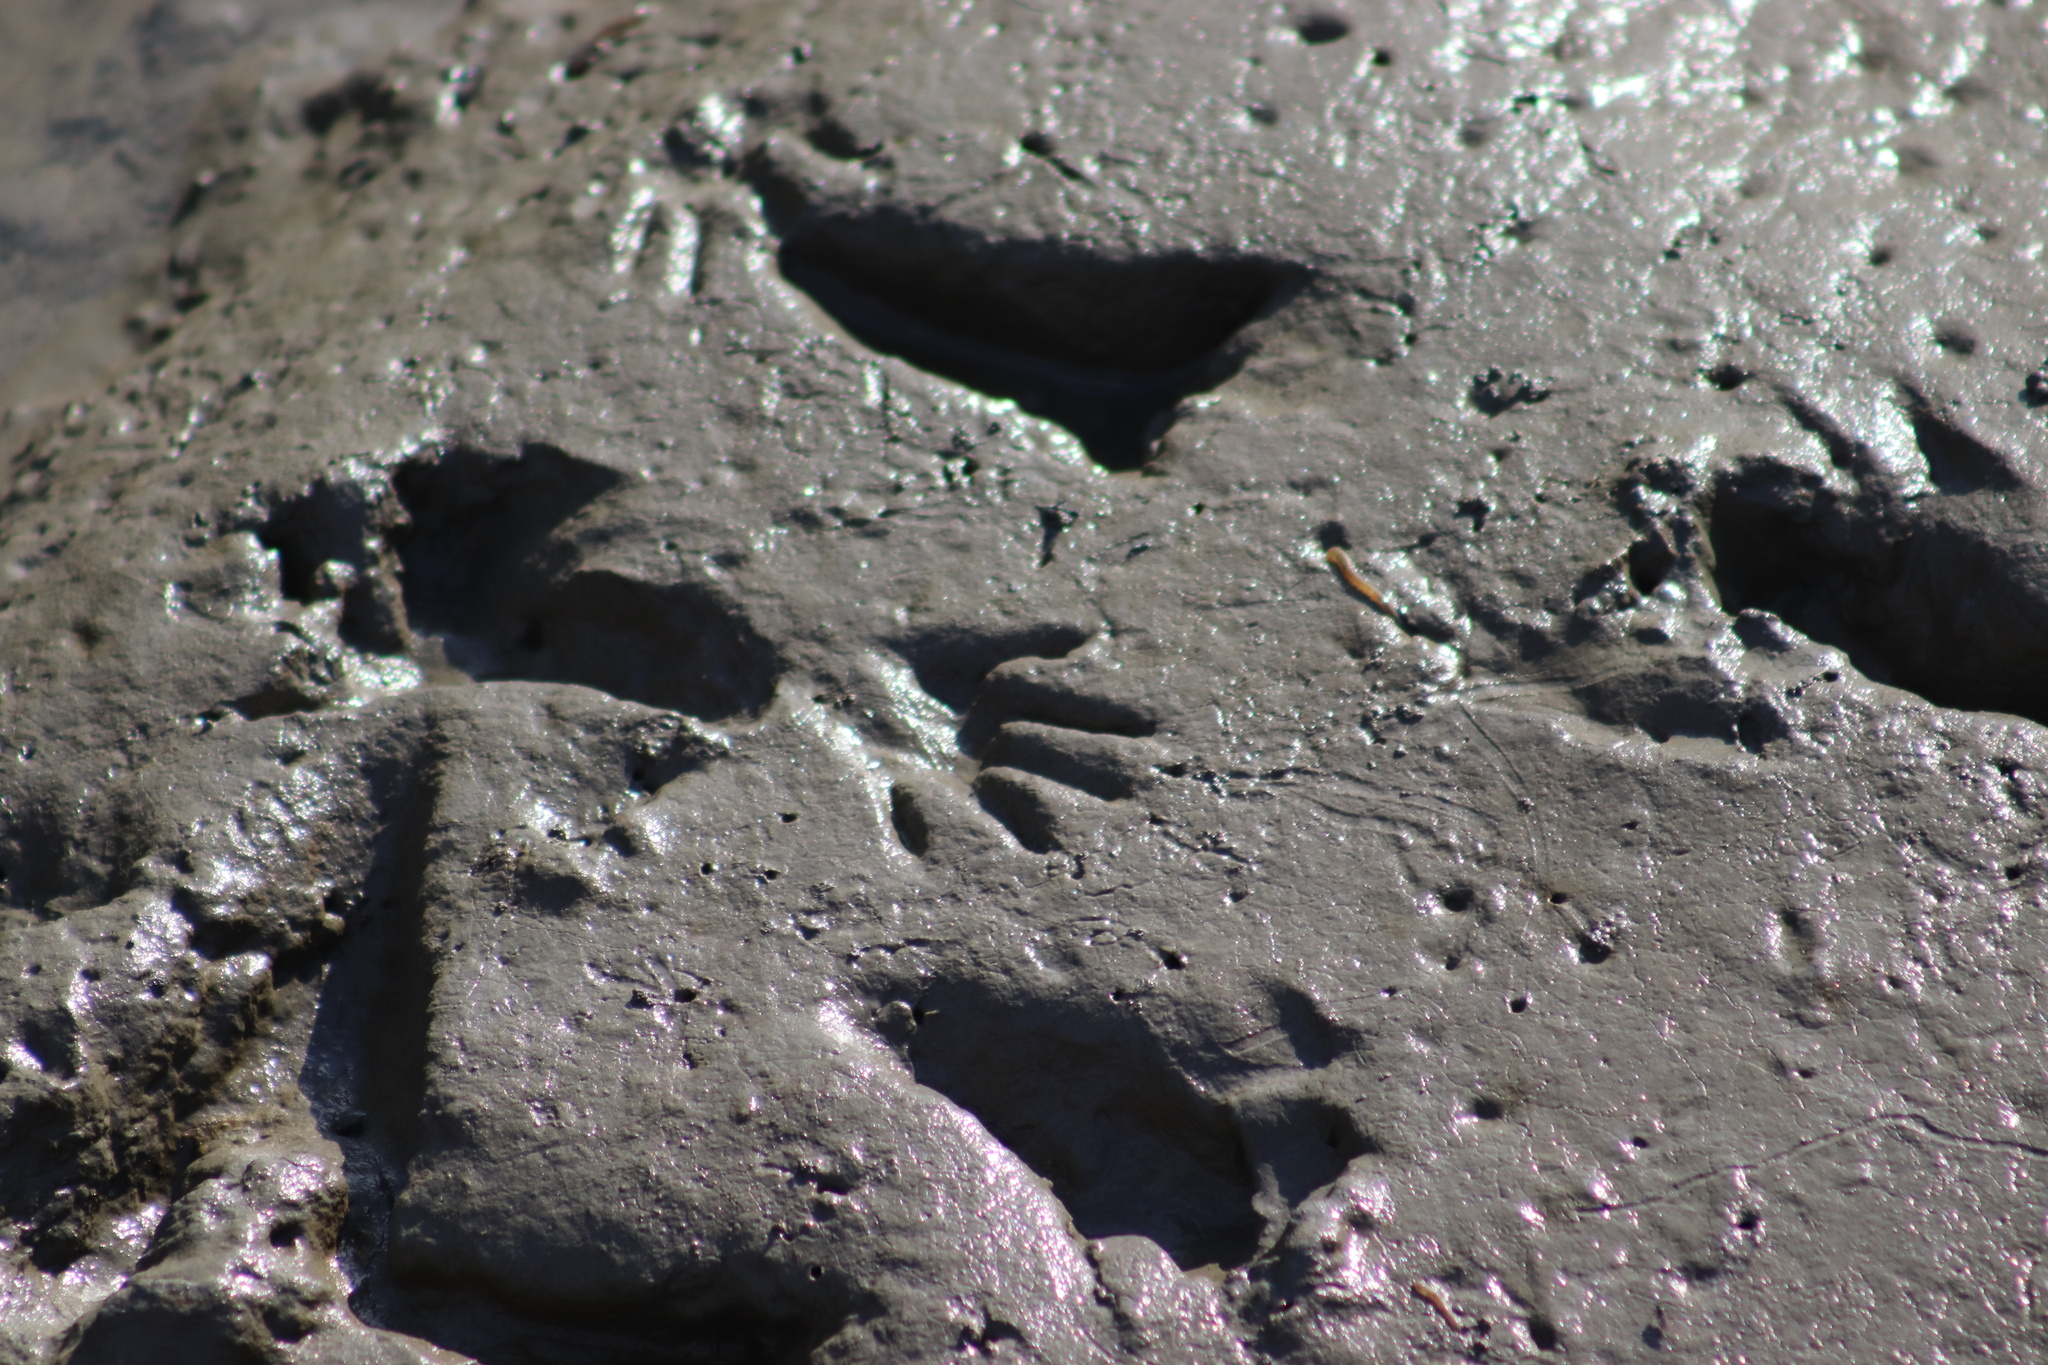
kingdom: Animalia
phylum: Chordata
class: Mammalia
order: Carnivora
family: Procyonidae
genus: Procyon
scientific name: Procyon lotor
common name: Raccoon
